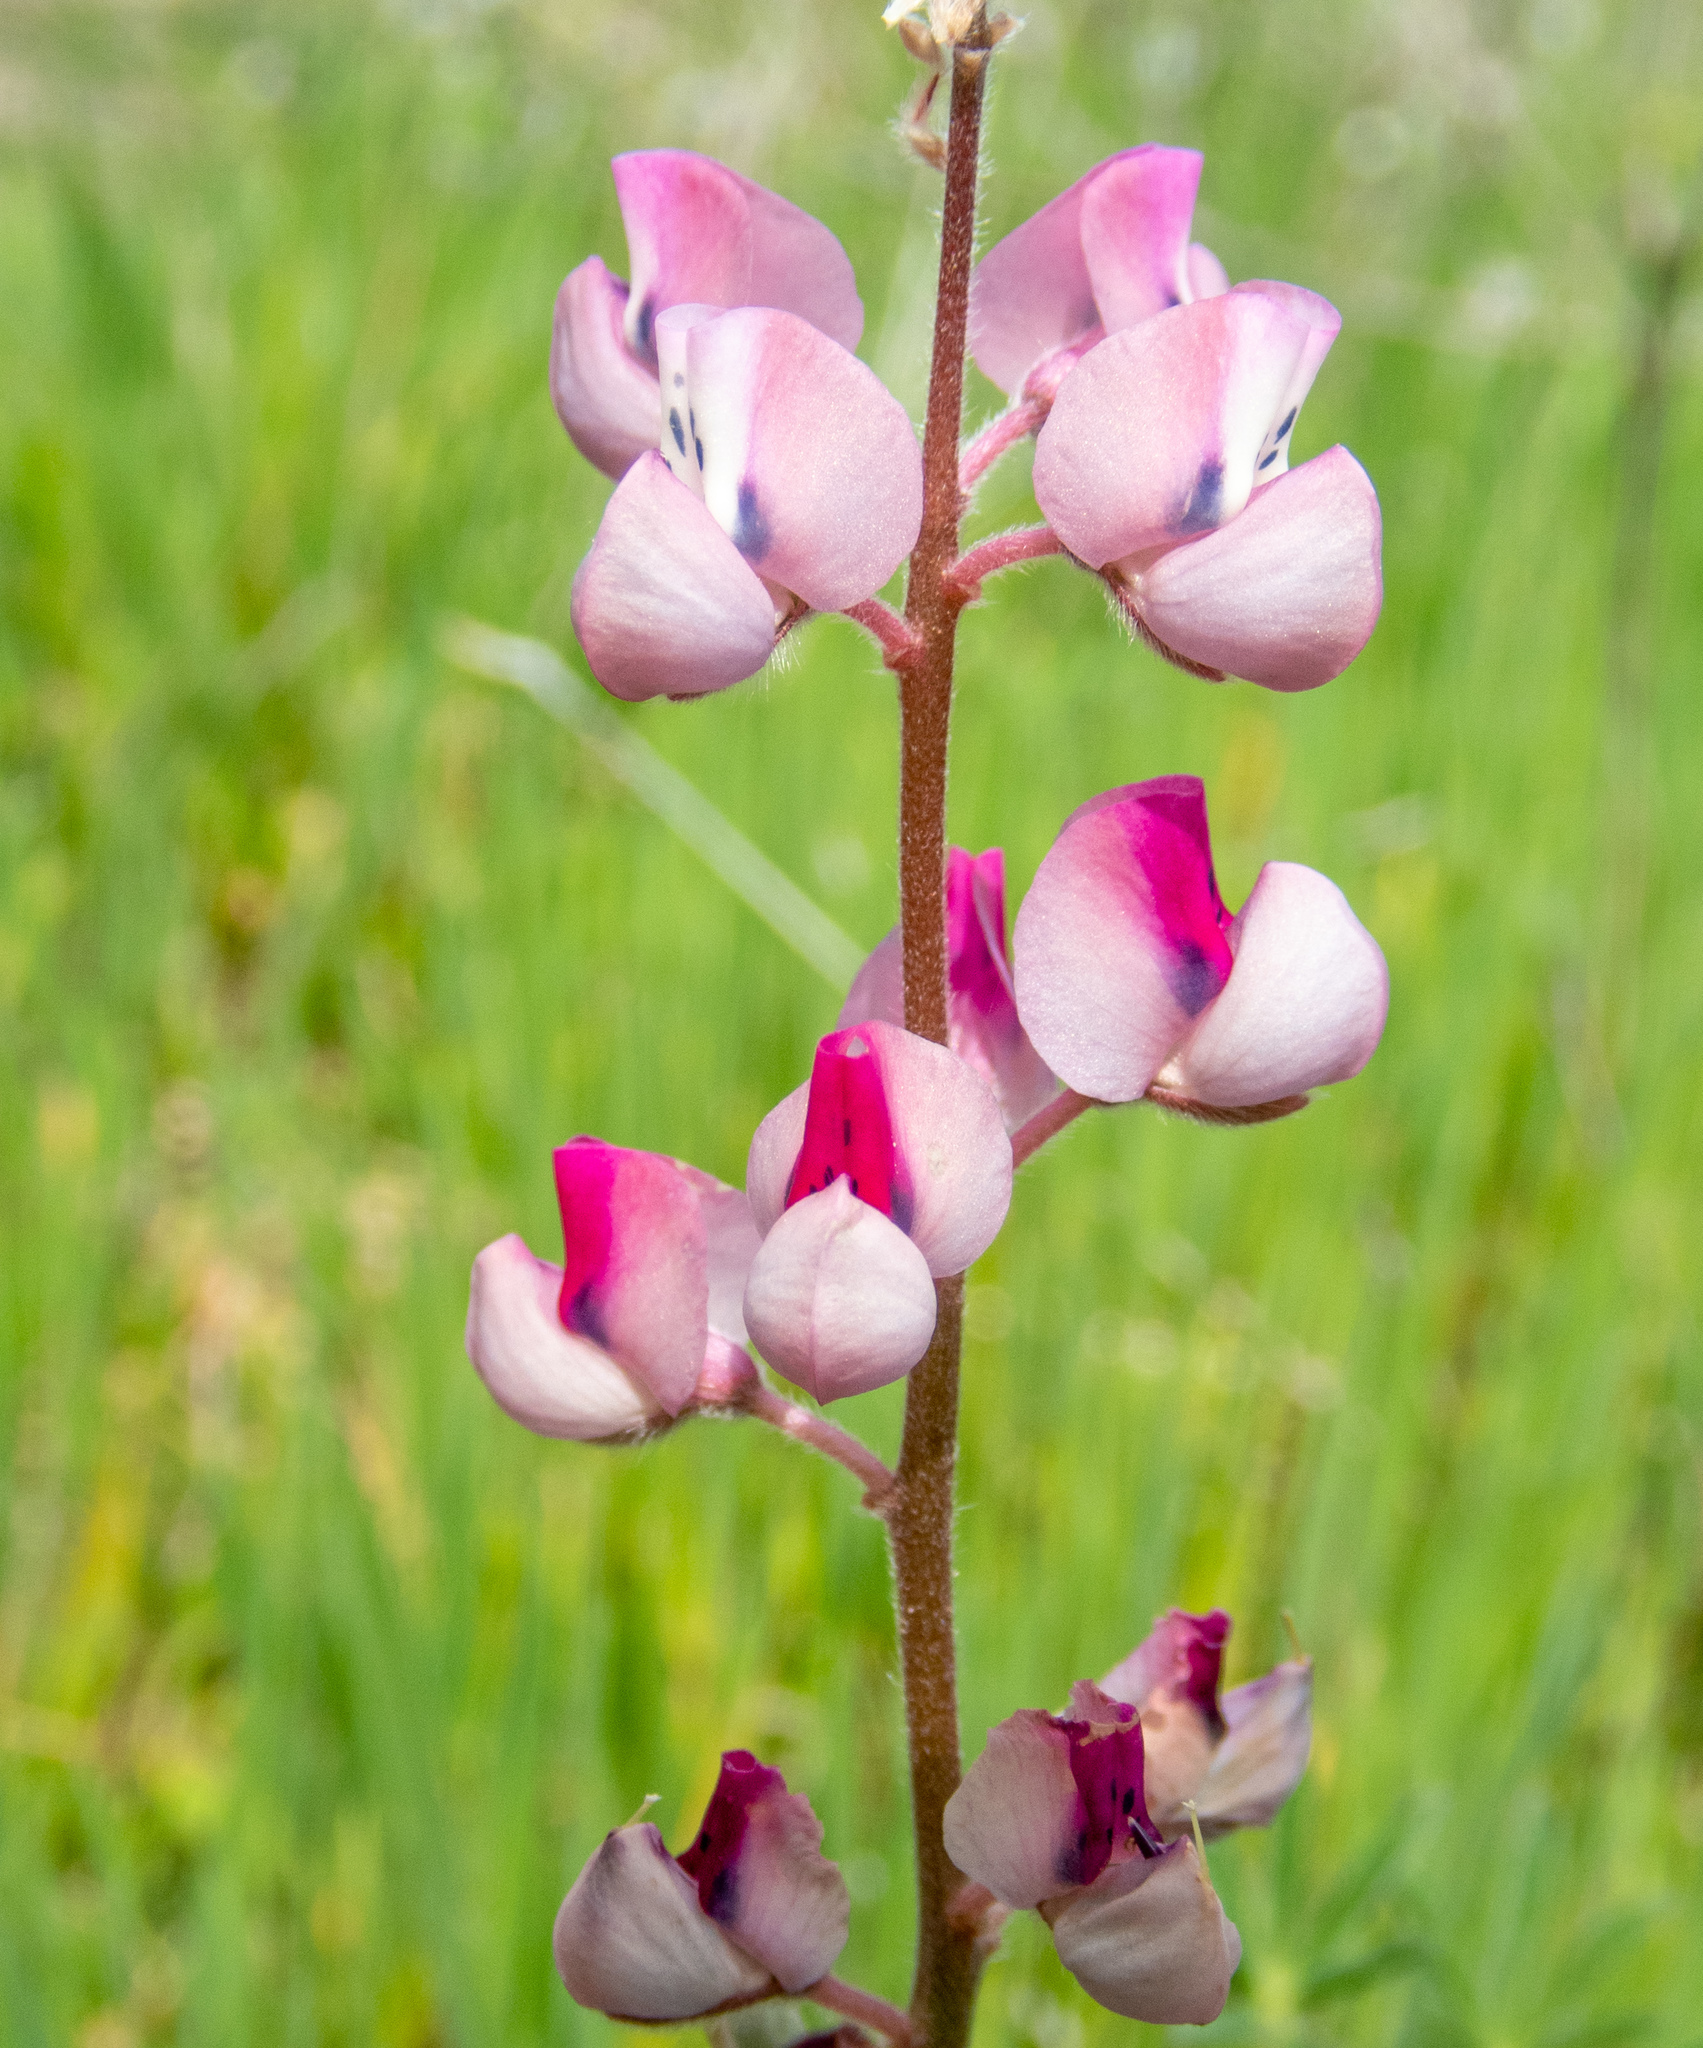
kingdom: Plantae
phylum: Tracheophyta
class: Magnoliopsida
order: Fabales
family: Fabaceae
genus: Lupinus
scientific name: Lupinus nanus
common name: Orean blue lupin
